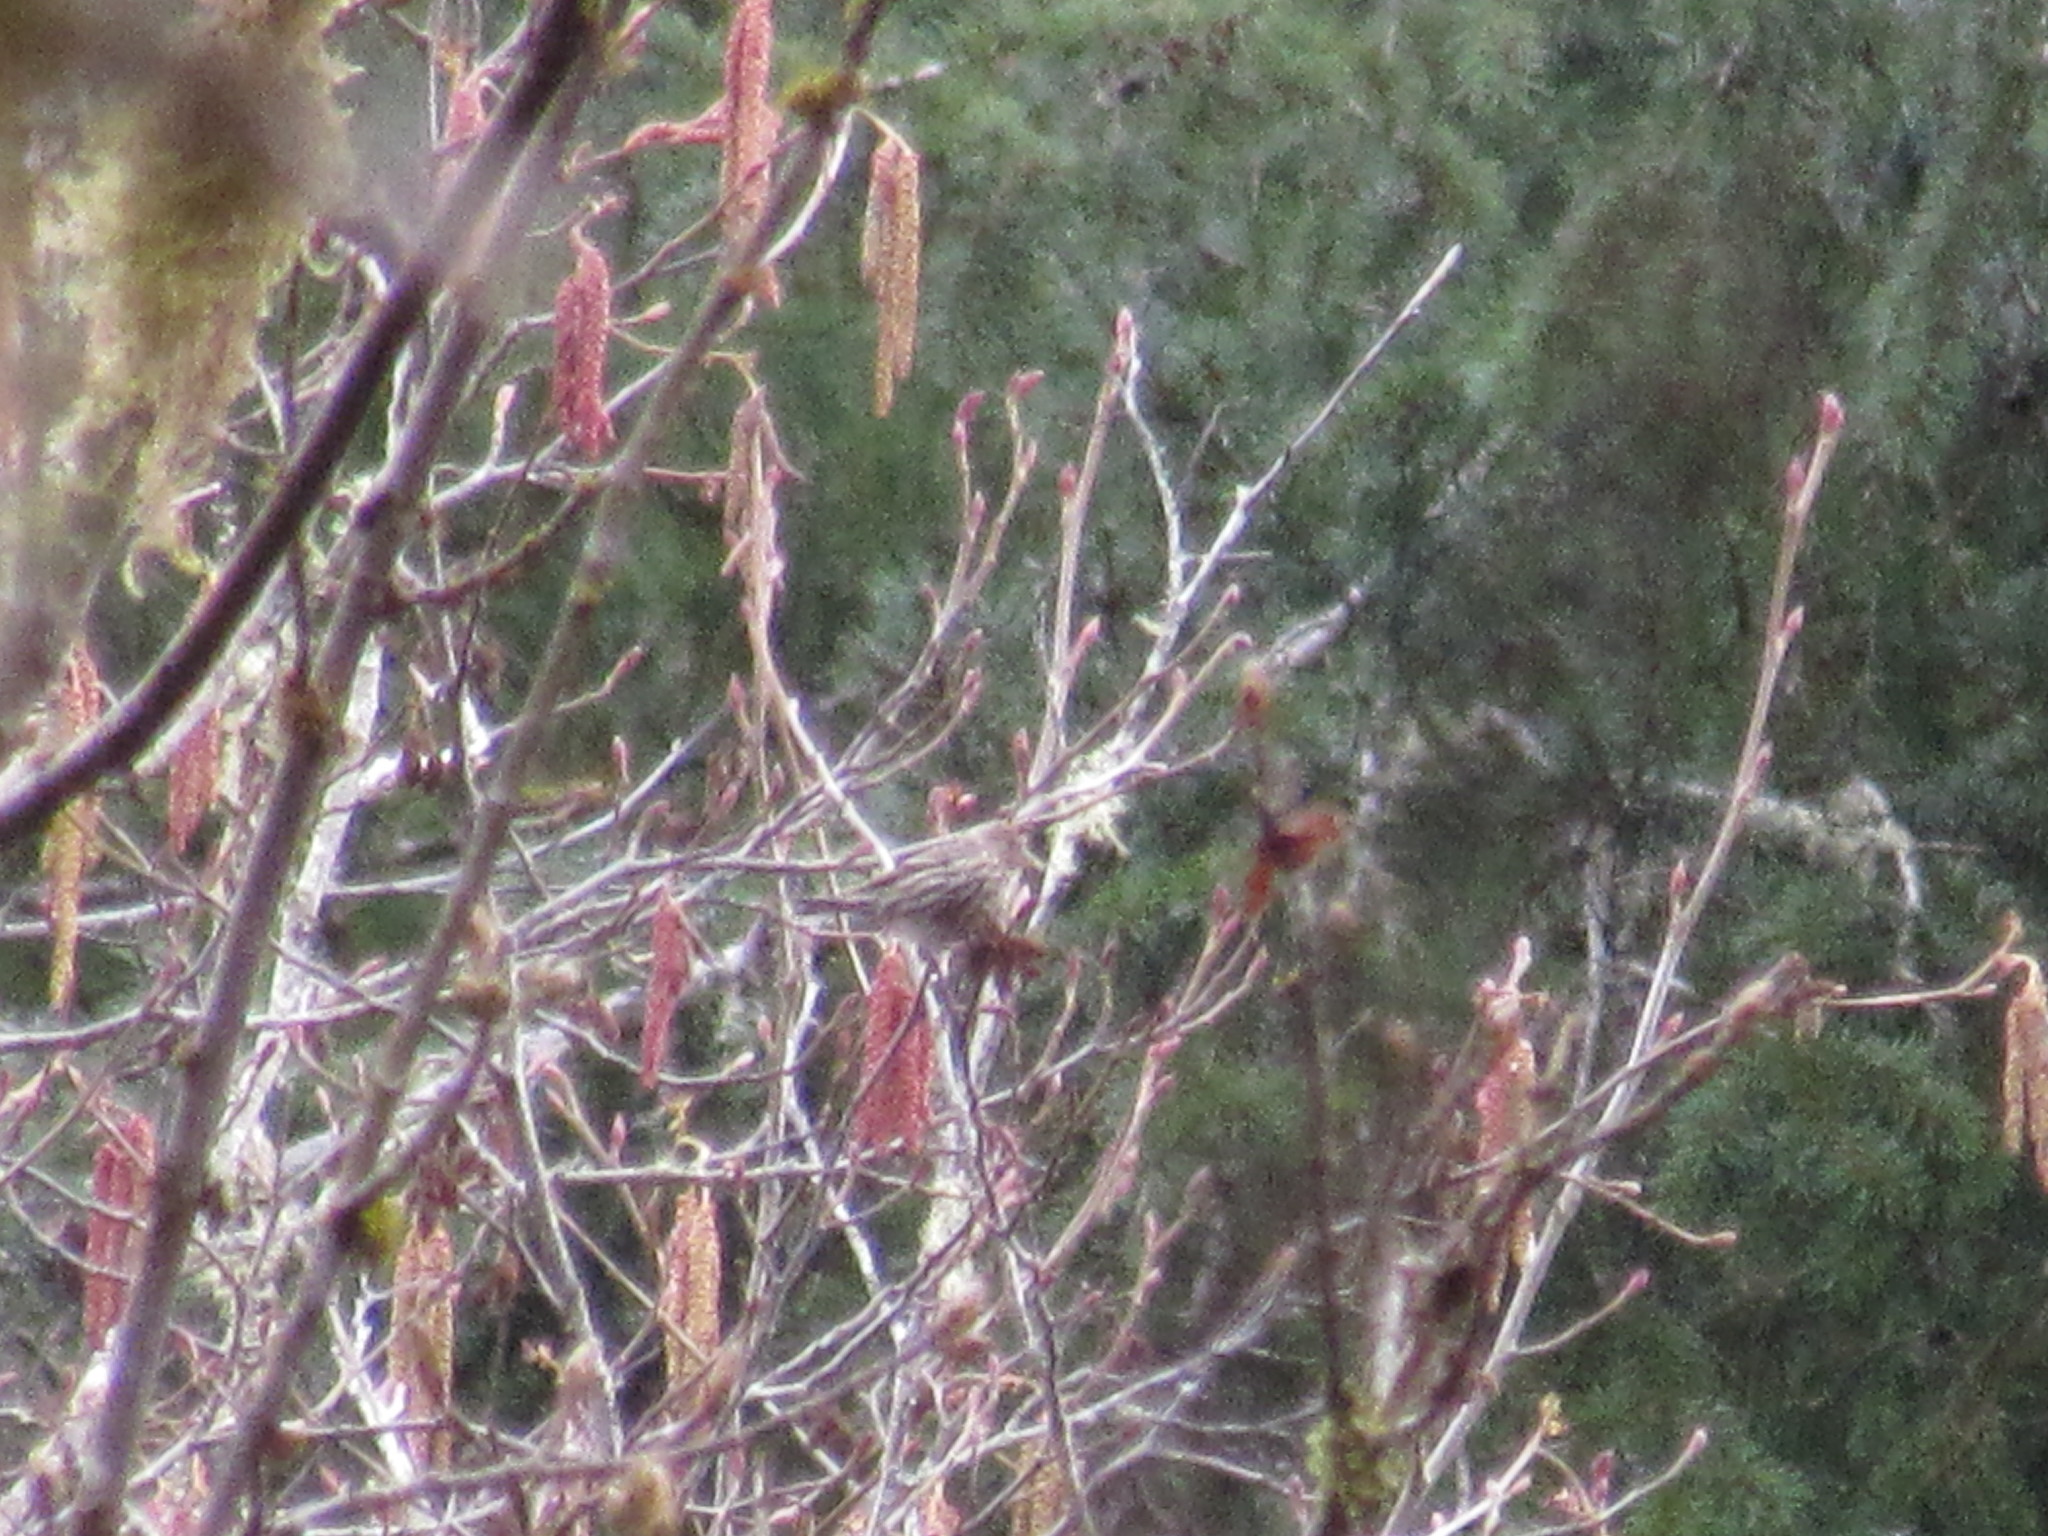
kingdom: Animalia
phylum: Chordata
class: Aves
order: Passeriformes
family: Fringillidae
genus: Spinus
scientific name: Spinus pinus
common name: Pine siskin
